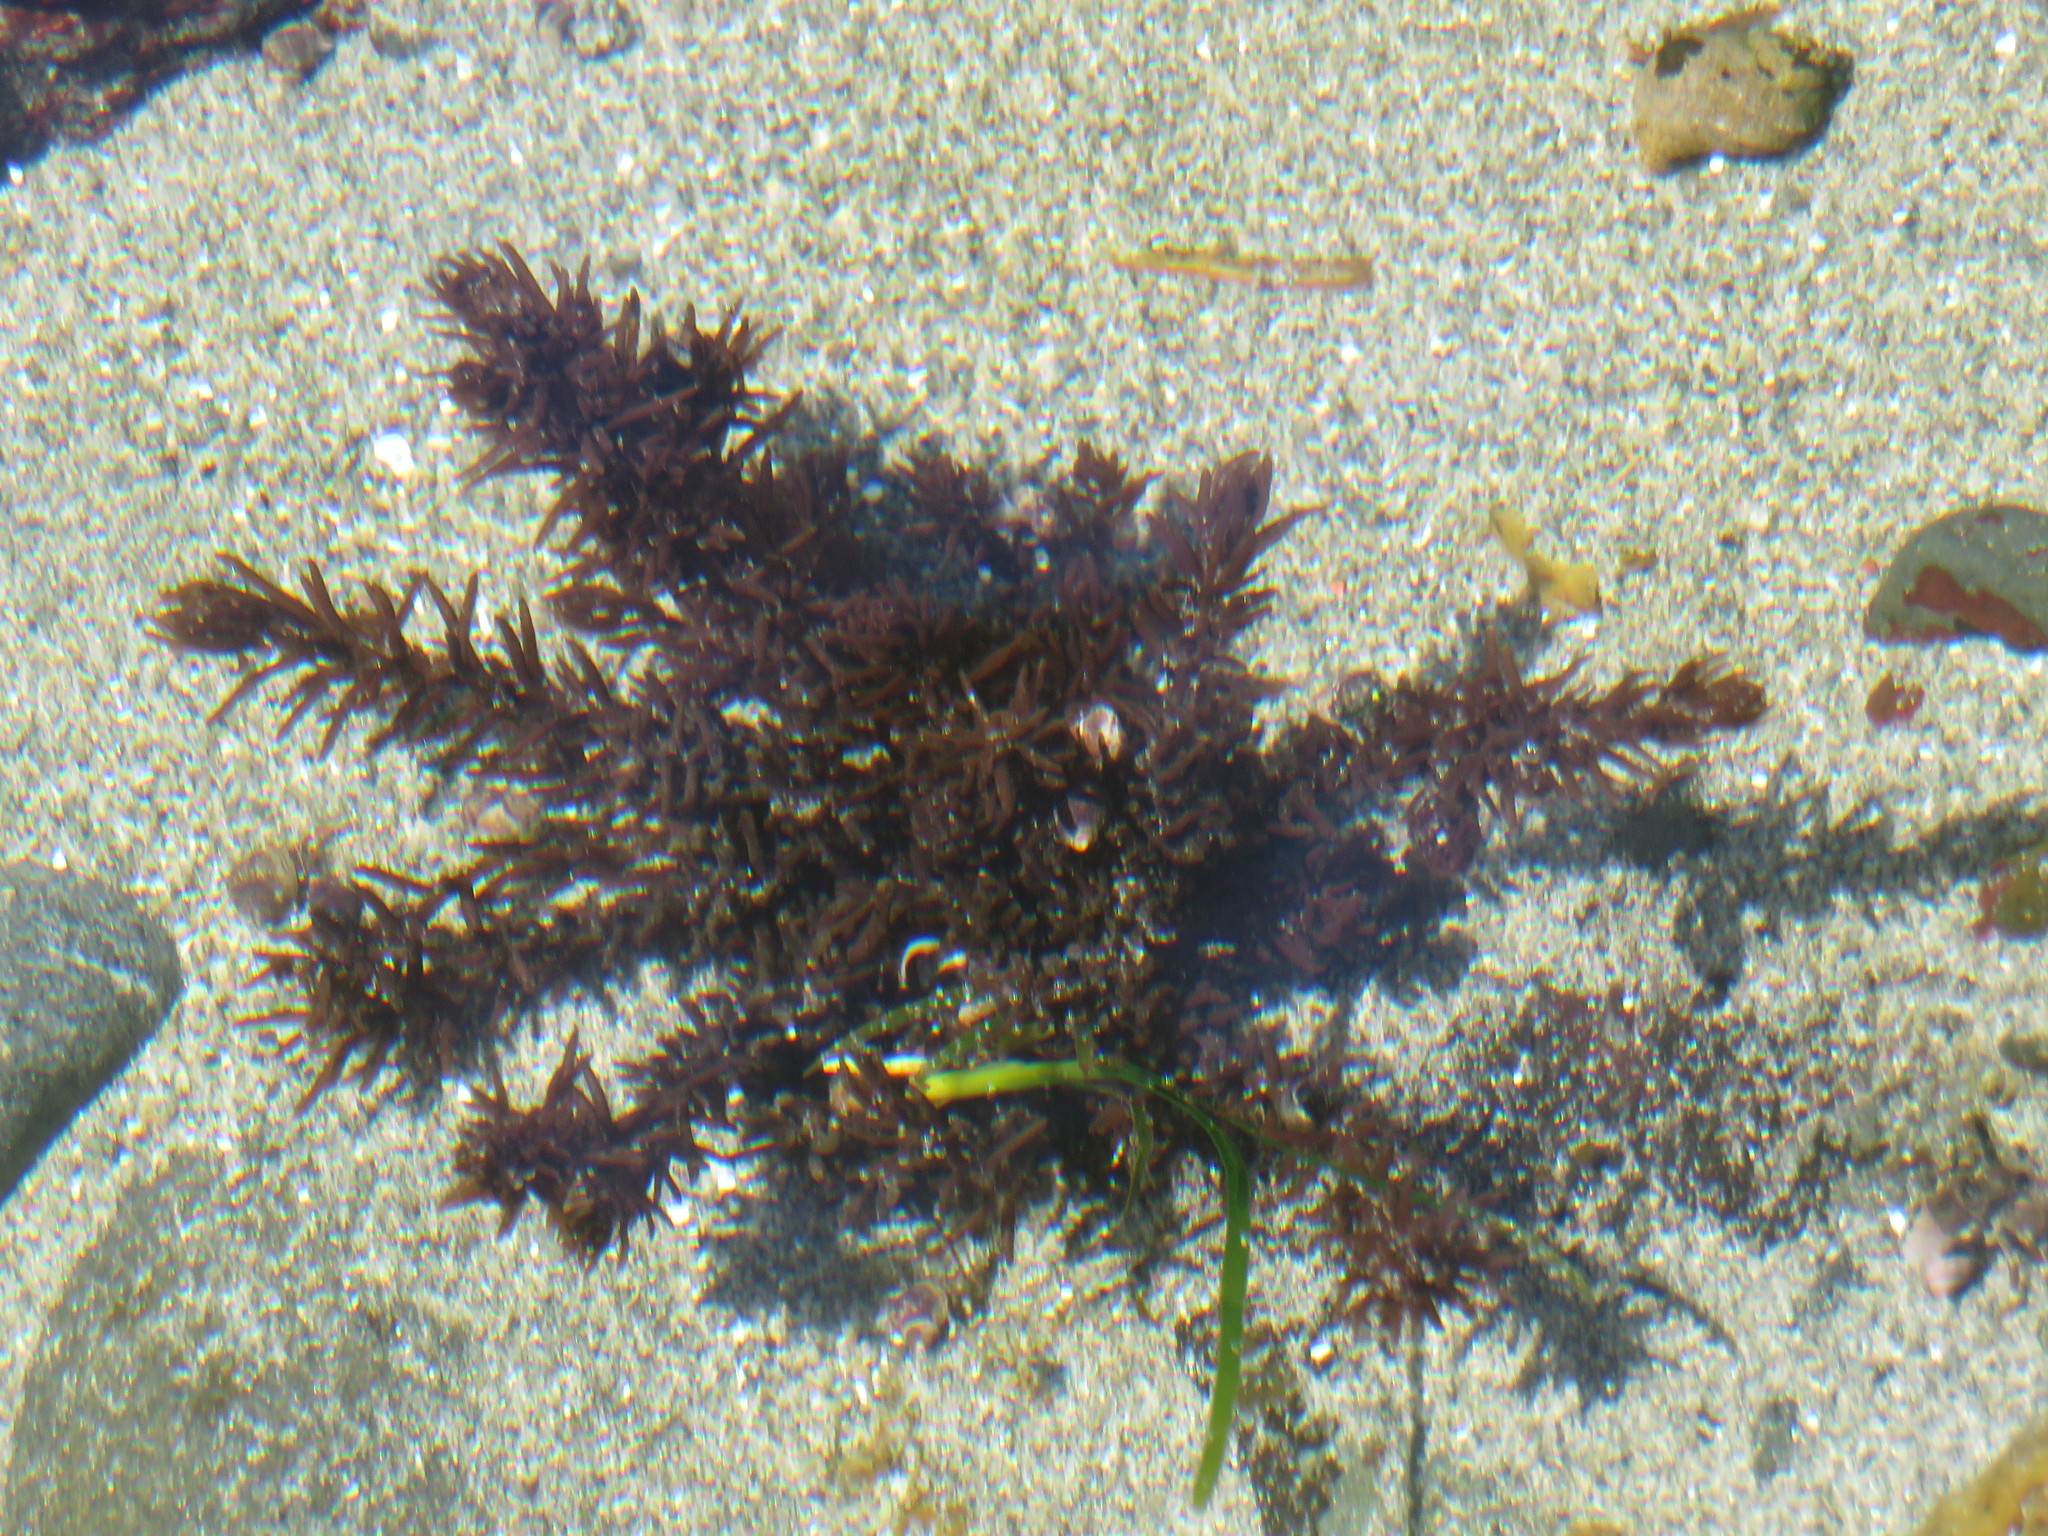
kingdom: Plantae
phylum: Rhodophyta
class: Florideophyceae
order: Ceramiales
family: Rhodomelaceae
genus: Neorhodomela
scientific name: Neorhodomela larix
